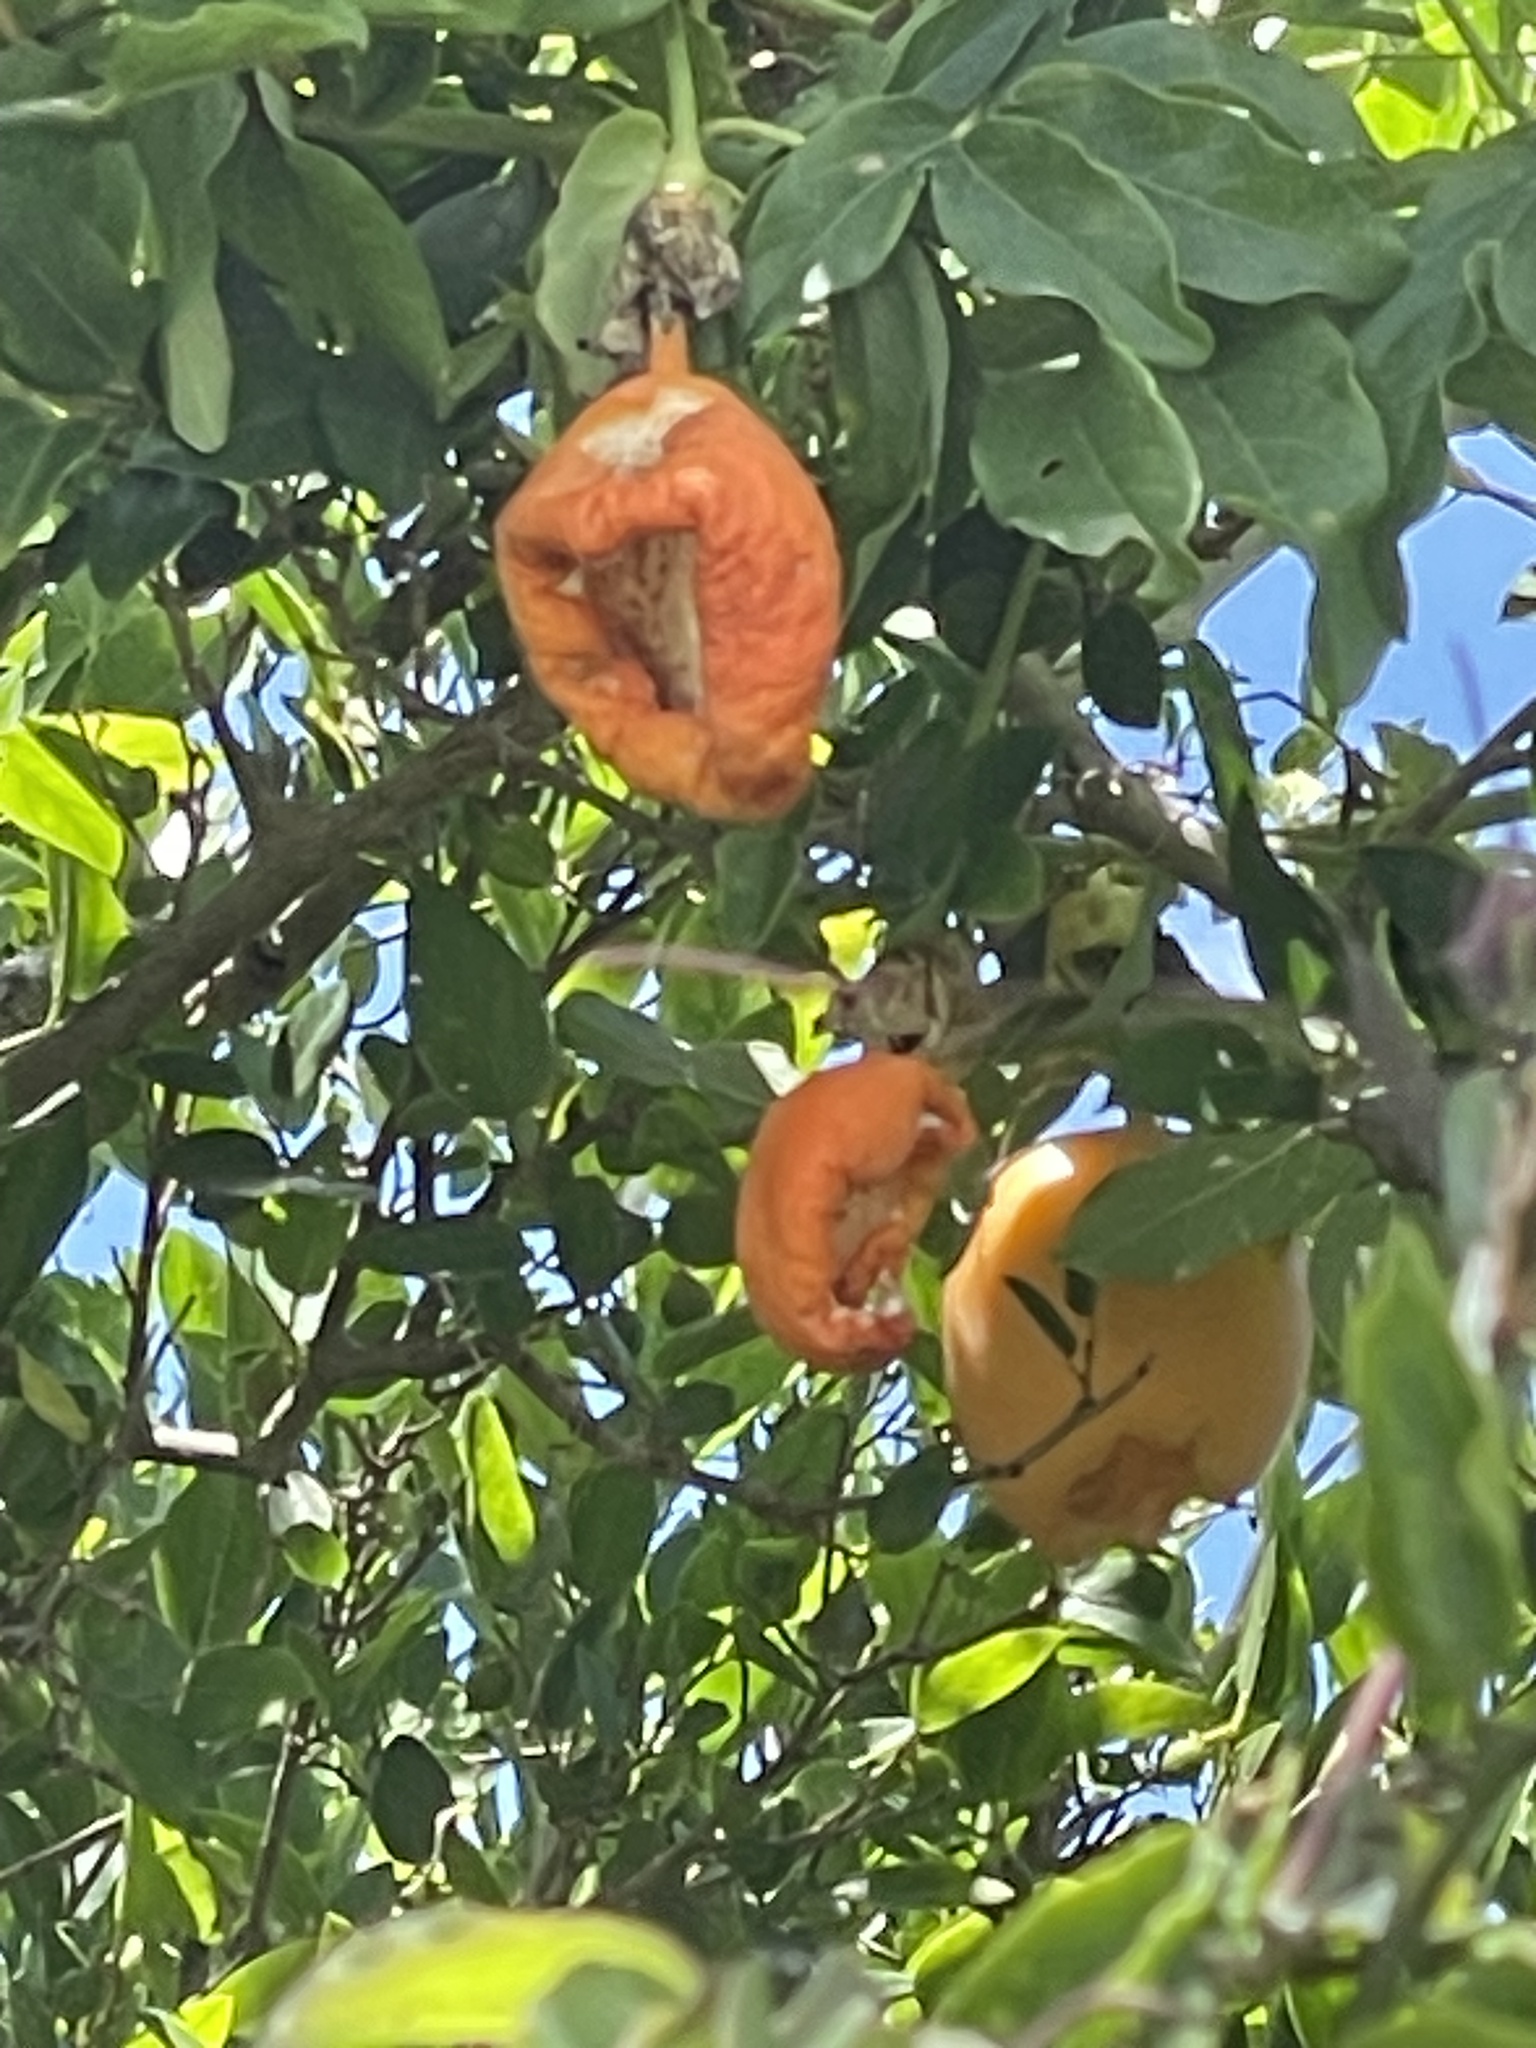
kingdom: Plantae
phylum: Tracheophyta
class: Magnoliopsida
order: Malpighiales
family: Passifloraceae
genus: Passiflora
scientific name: Passiflora caerulea
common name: Blue passionflower
